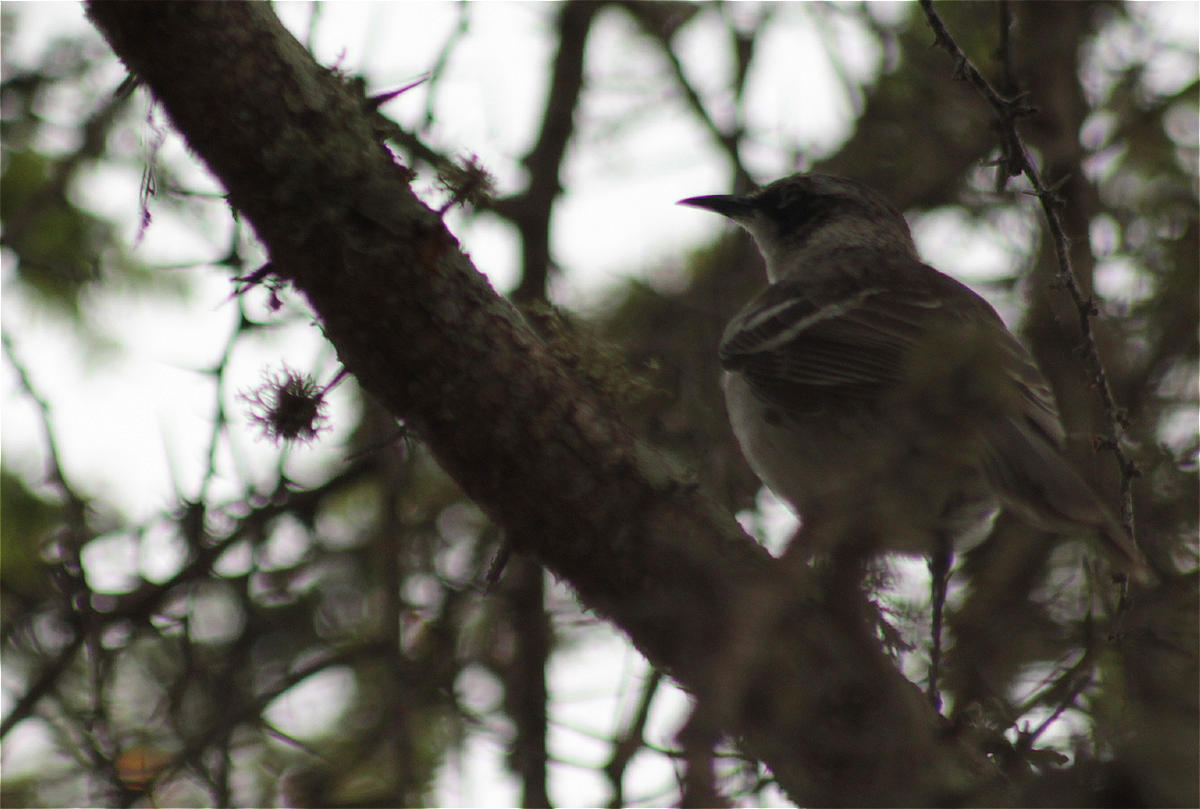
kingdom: Animalia
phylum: Chordata
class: Aves
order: Passeriformes
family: Mimidae
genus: Mimus
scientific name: Mimus parvulus
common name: Galapagos mockingbird
